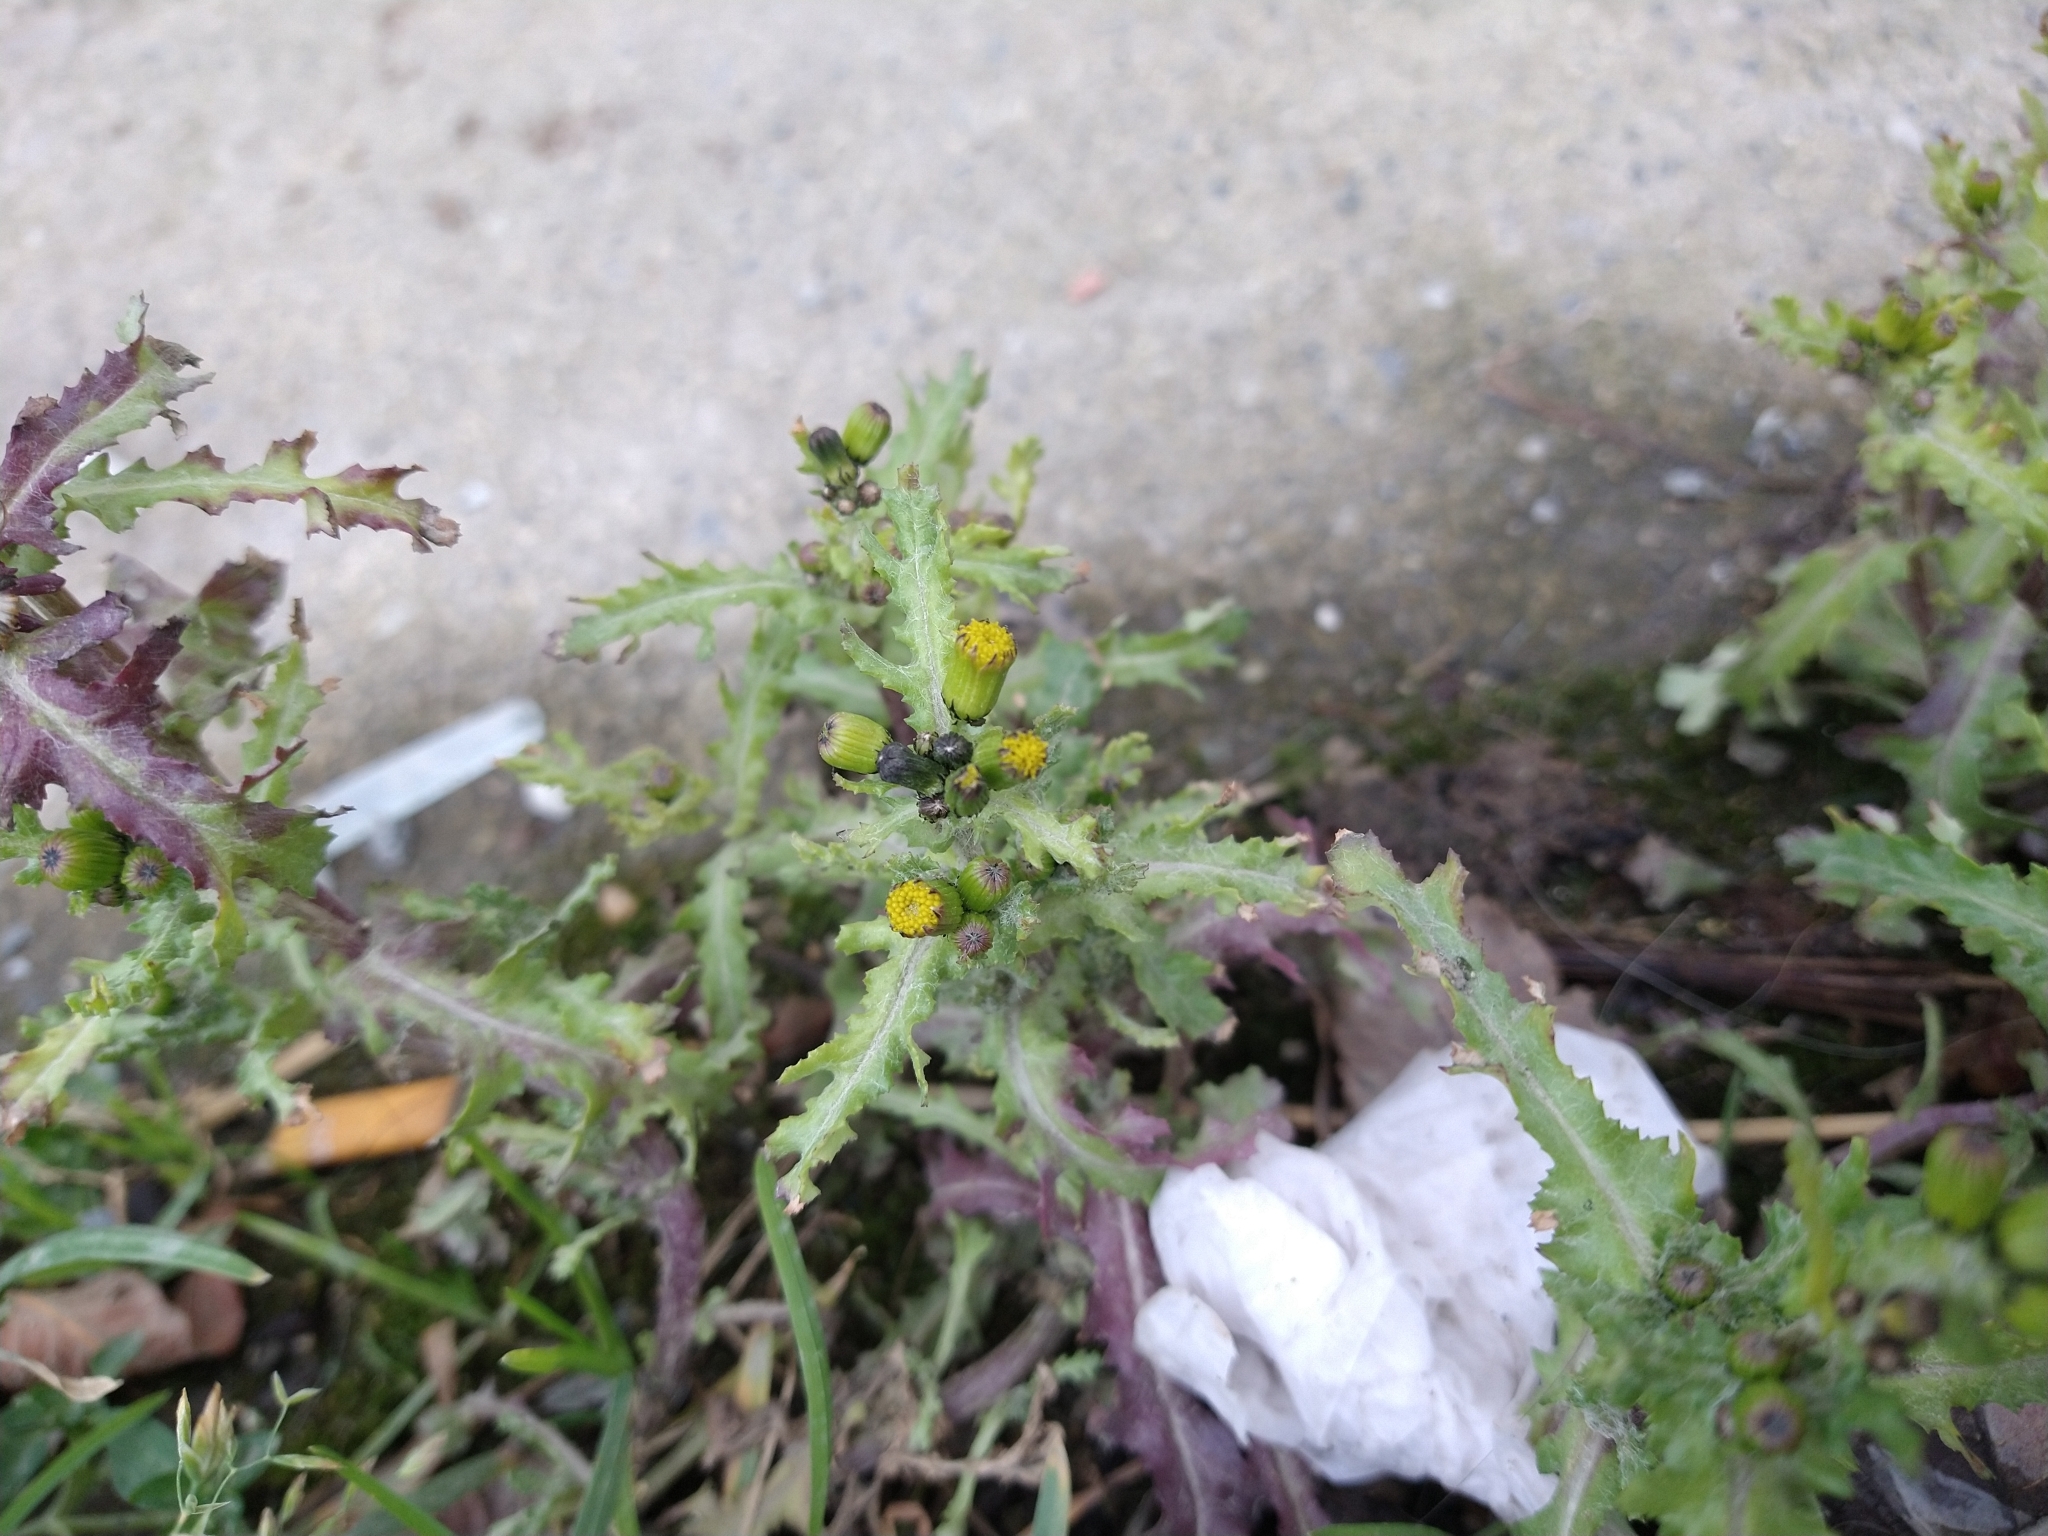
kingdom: Plantae
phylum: Tracheophyta
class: Magnoliopsida
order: Asterales
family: Asteraceae
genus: Senecio
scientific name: Senecio vulgaris
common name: Old-man-in-the-spring
